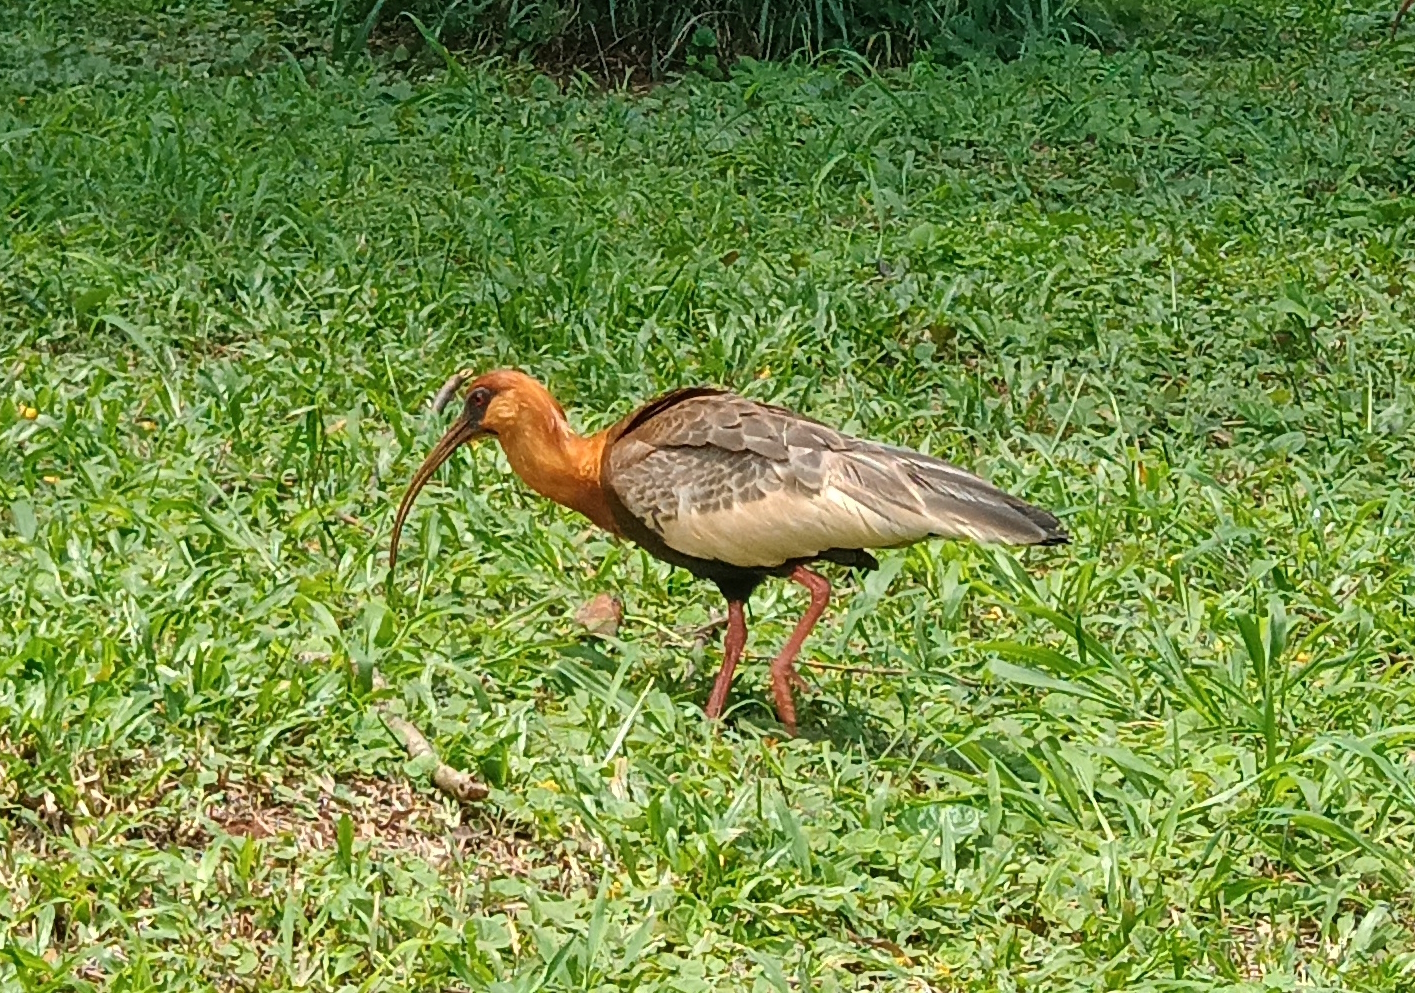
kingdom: Animalia
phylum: Chordata
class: Aves
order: Pelecaniformes
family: Threskiornithidae
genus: Theristicus
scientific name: Theristicus caudatus
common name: Buff-necked ibis
